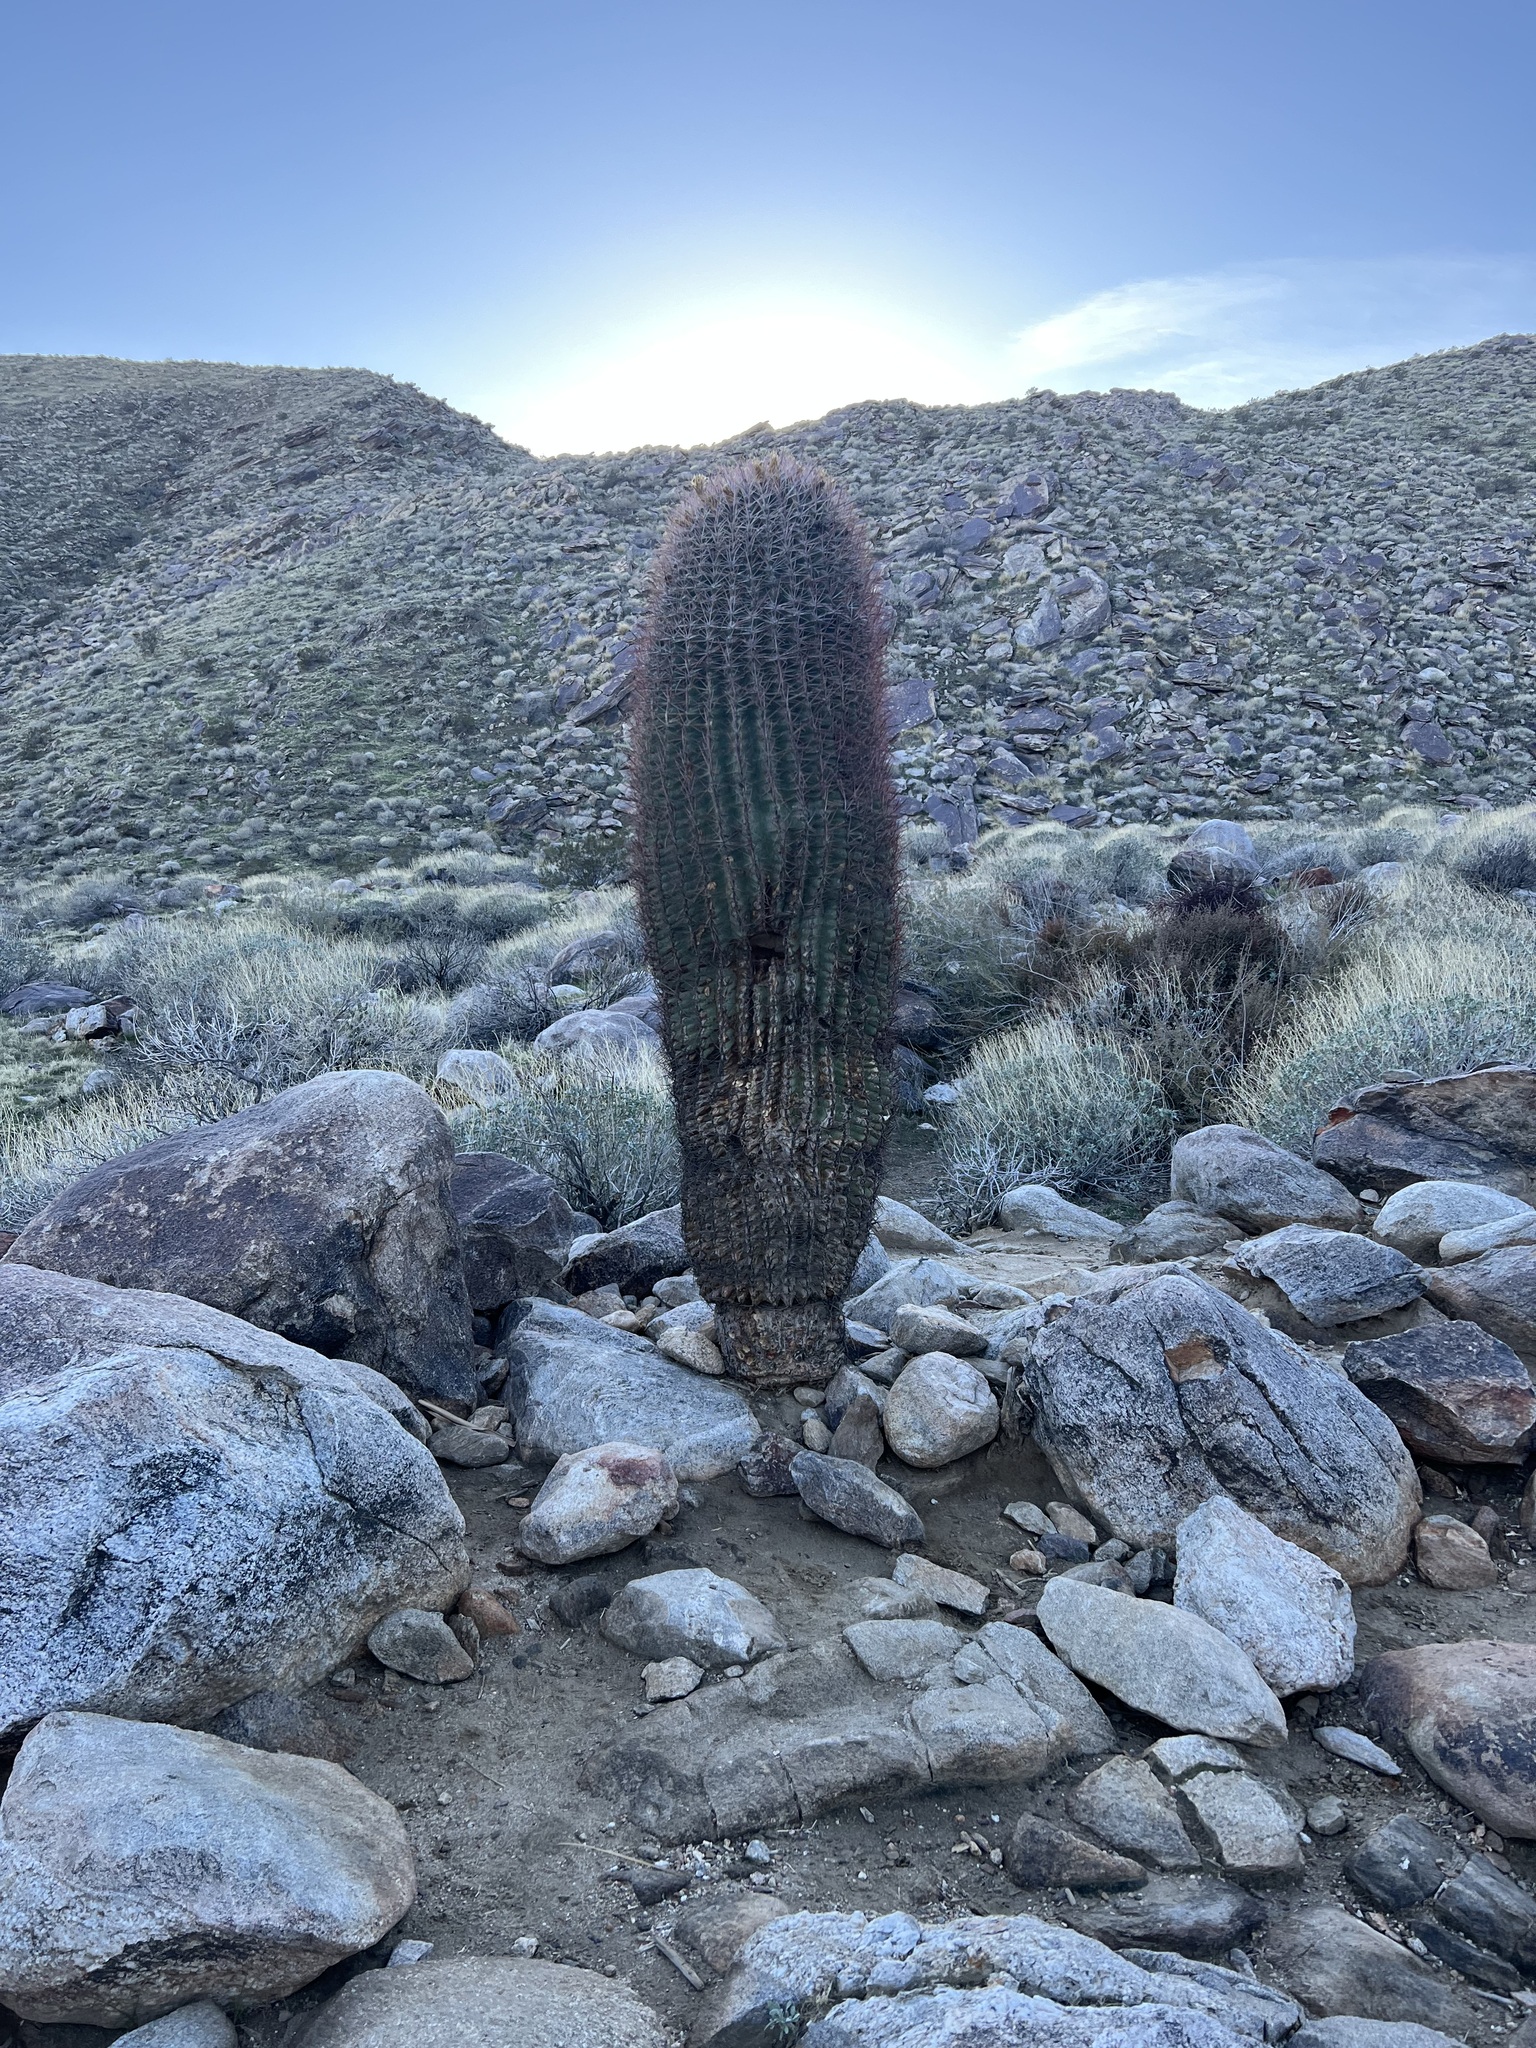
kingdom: Plantae
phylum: Tracheophyta
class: Magnoliopsida
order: Caryophyllales
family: Cactaceae
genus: Ferocactus
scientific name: Ferocactus cylindraceus
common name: California barrel cactus
